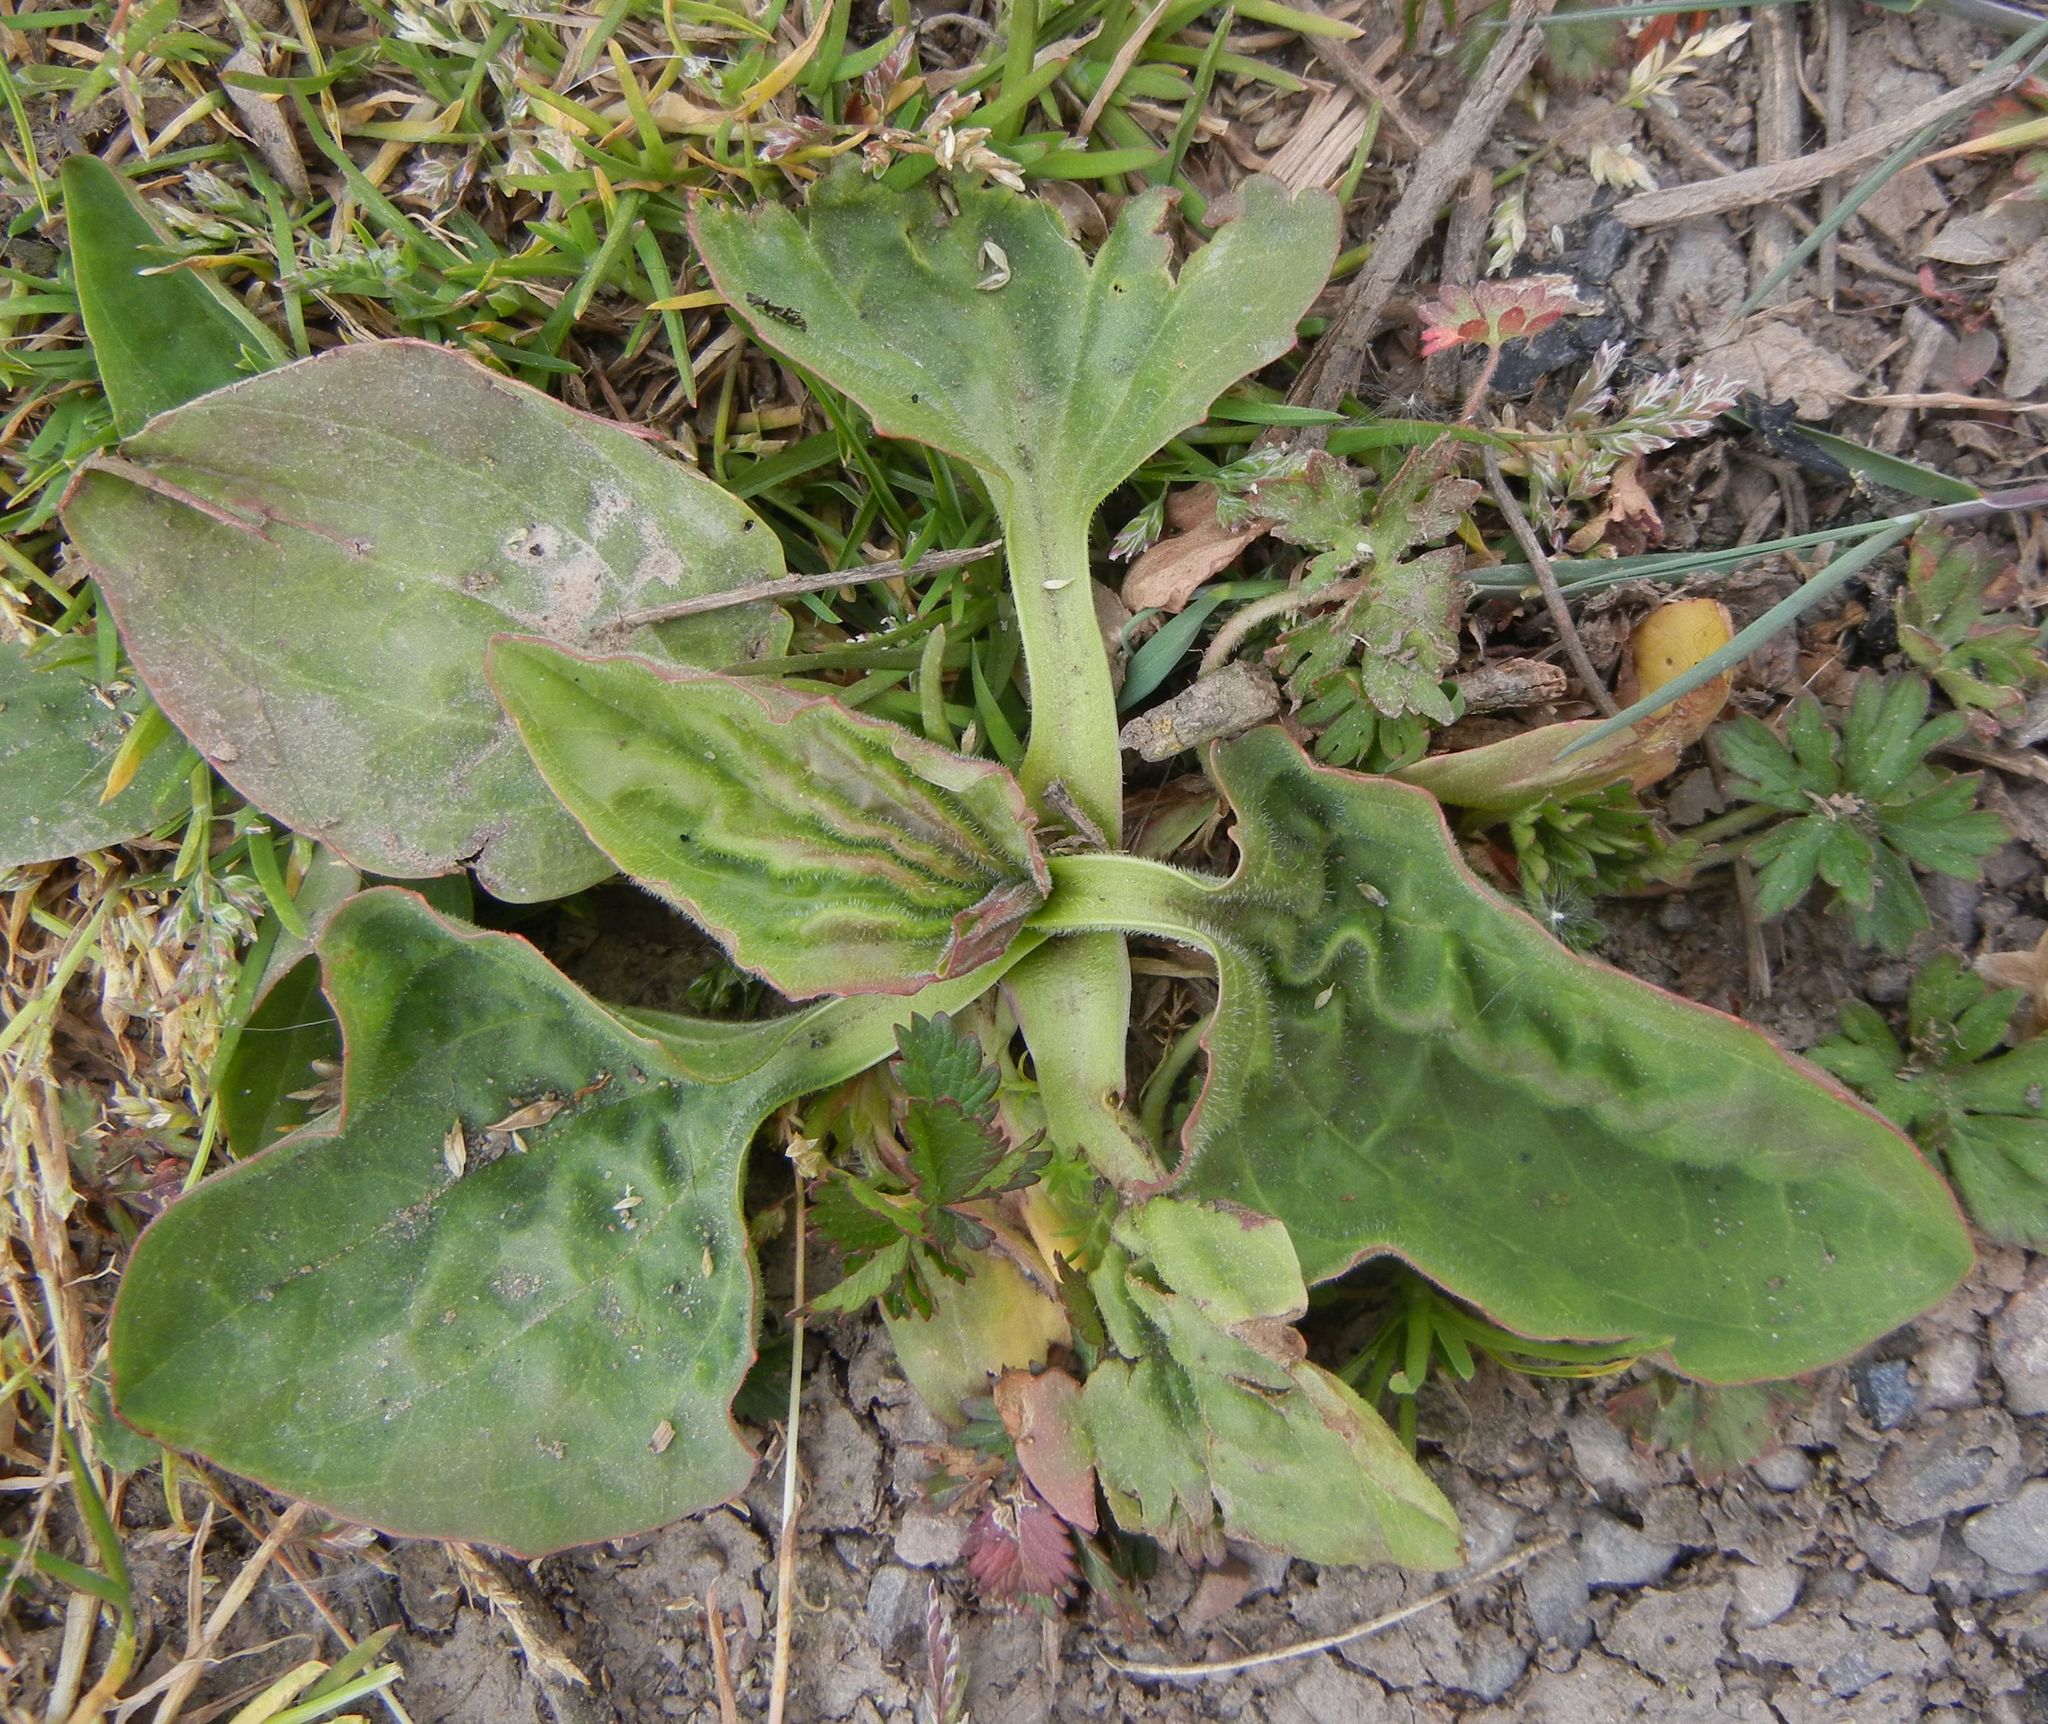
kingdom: Plantae
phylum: Tracheophyta
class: Magnoliopsida
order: Lamiales
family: Plantaginaceae
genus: Plantago
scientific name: Plantago major
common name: Common plantain
